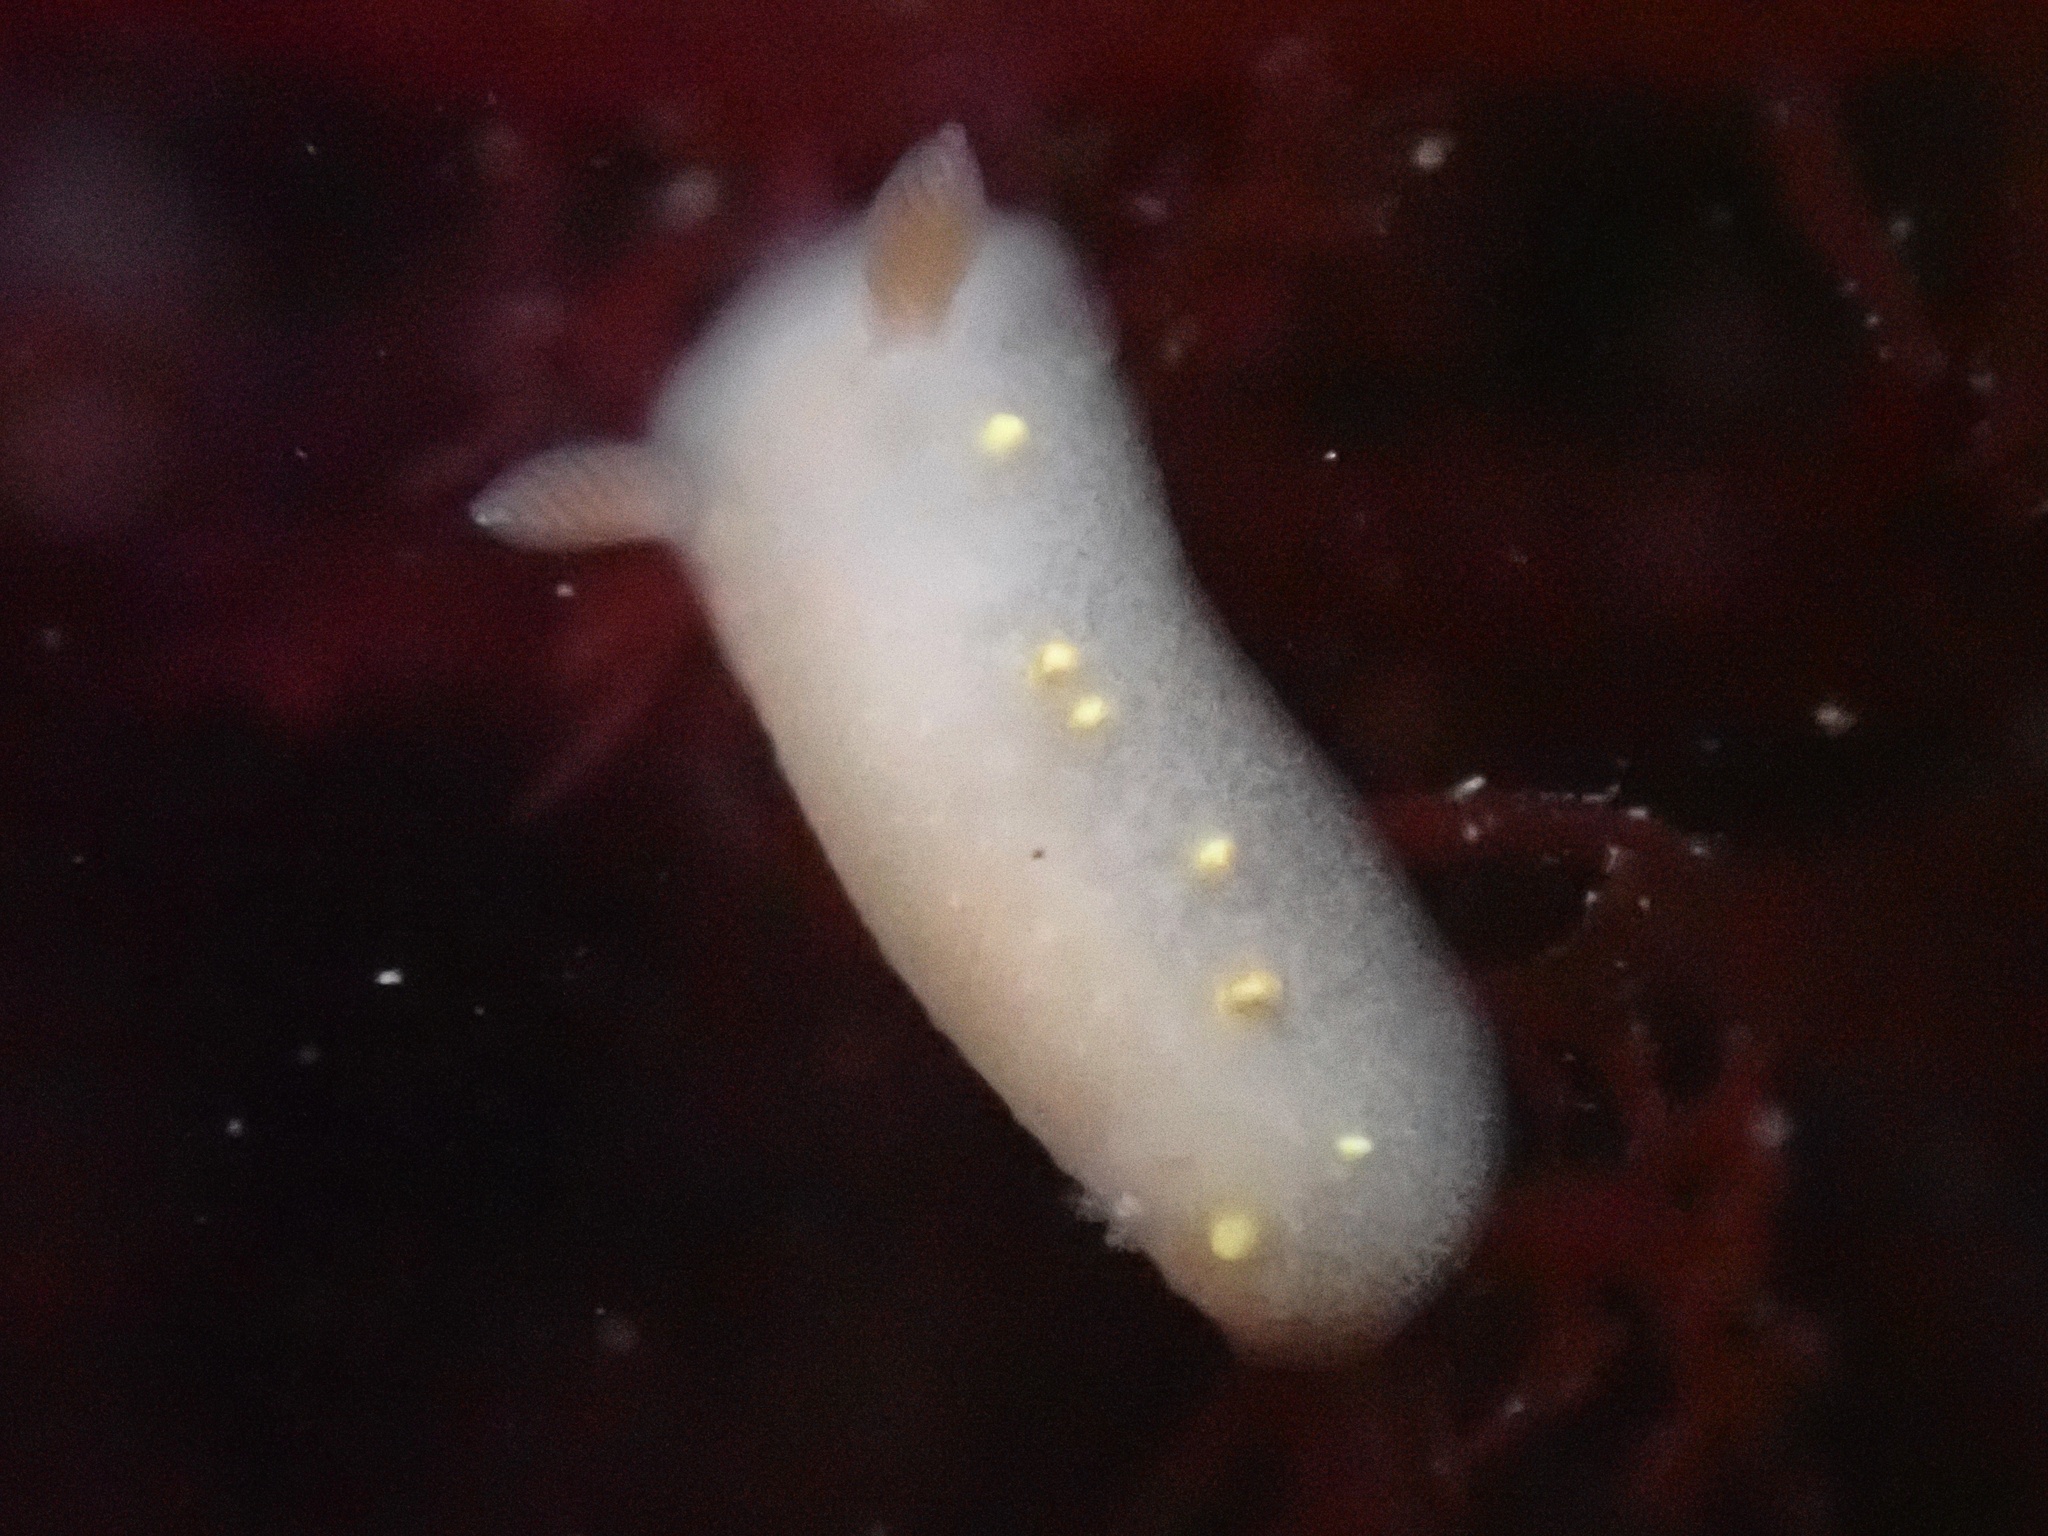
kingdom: Animalia
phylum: Mollusca
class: Gastropoda
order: Nudibranchia
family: Cadlinidae
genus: Cadlina
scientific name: Cadlina modesta
